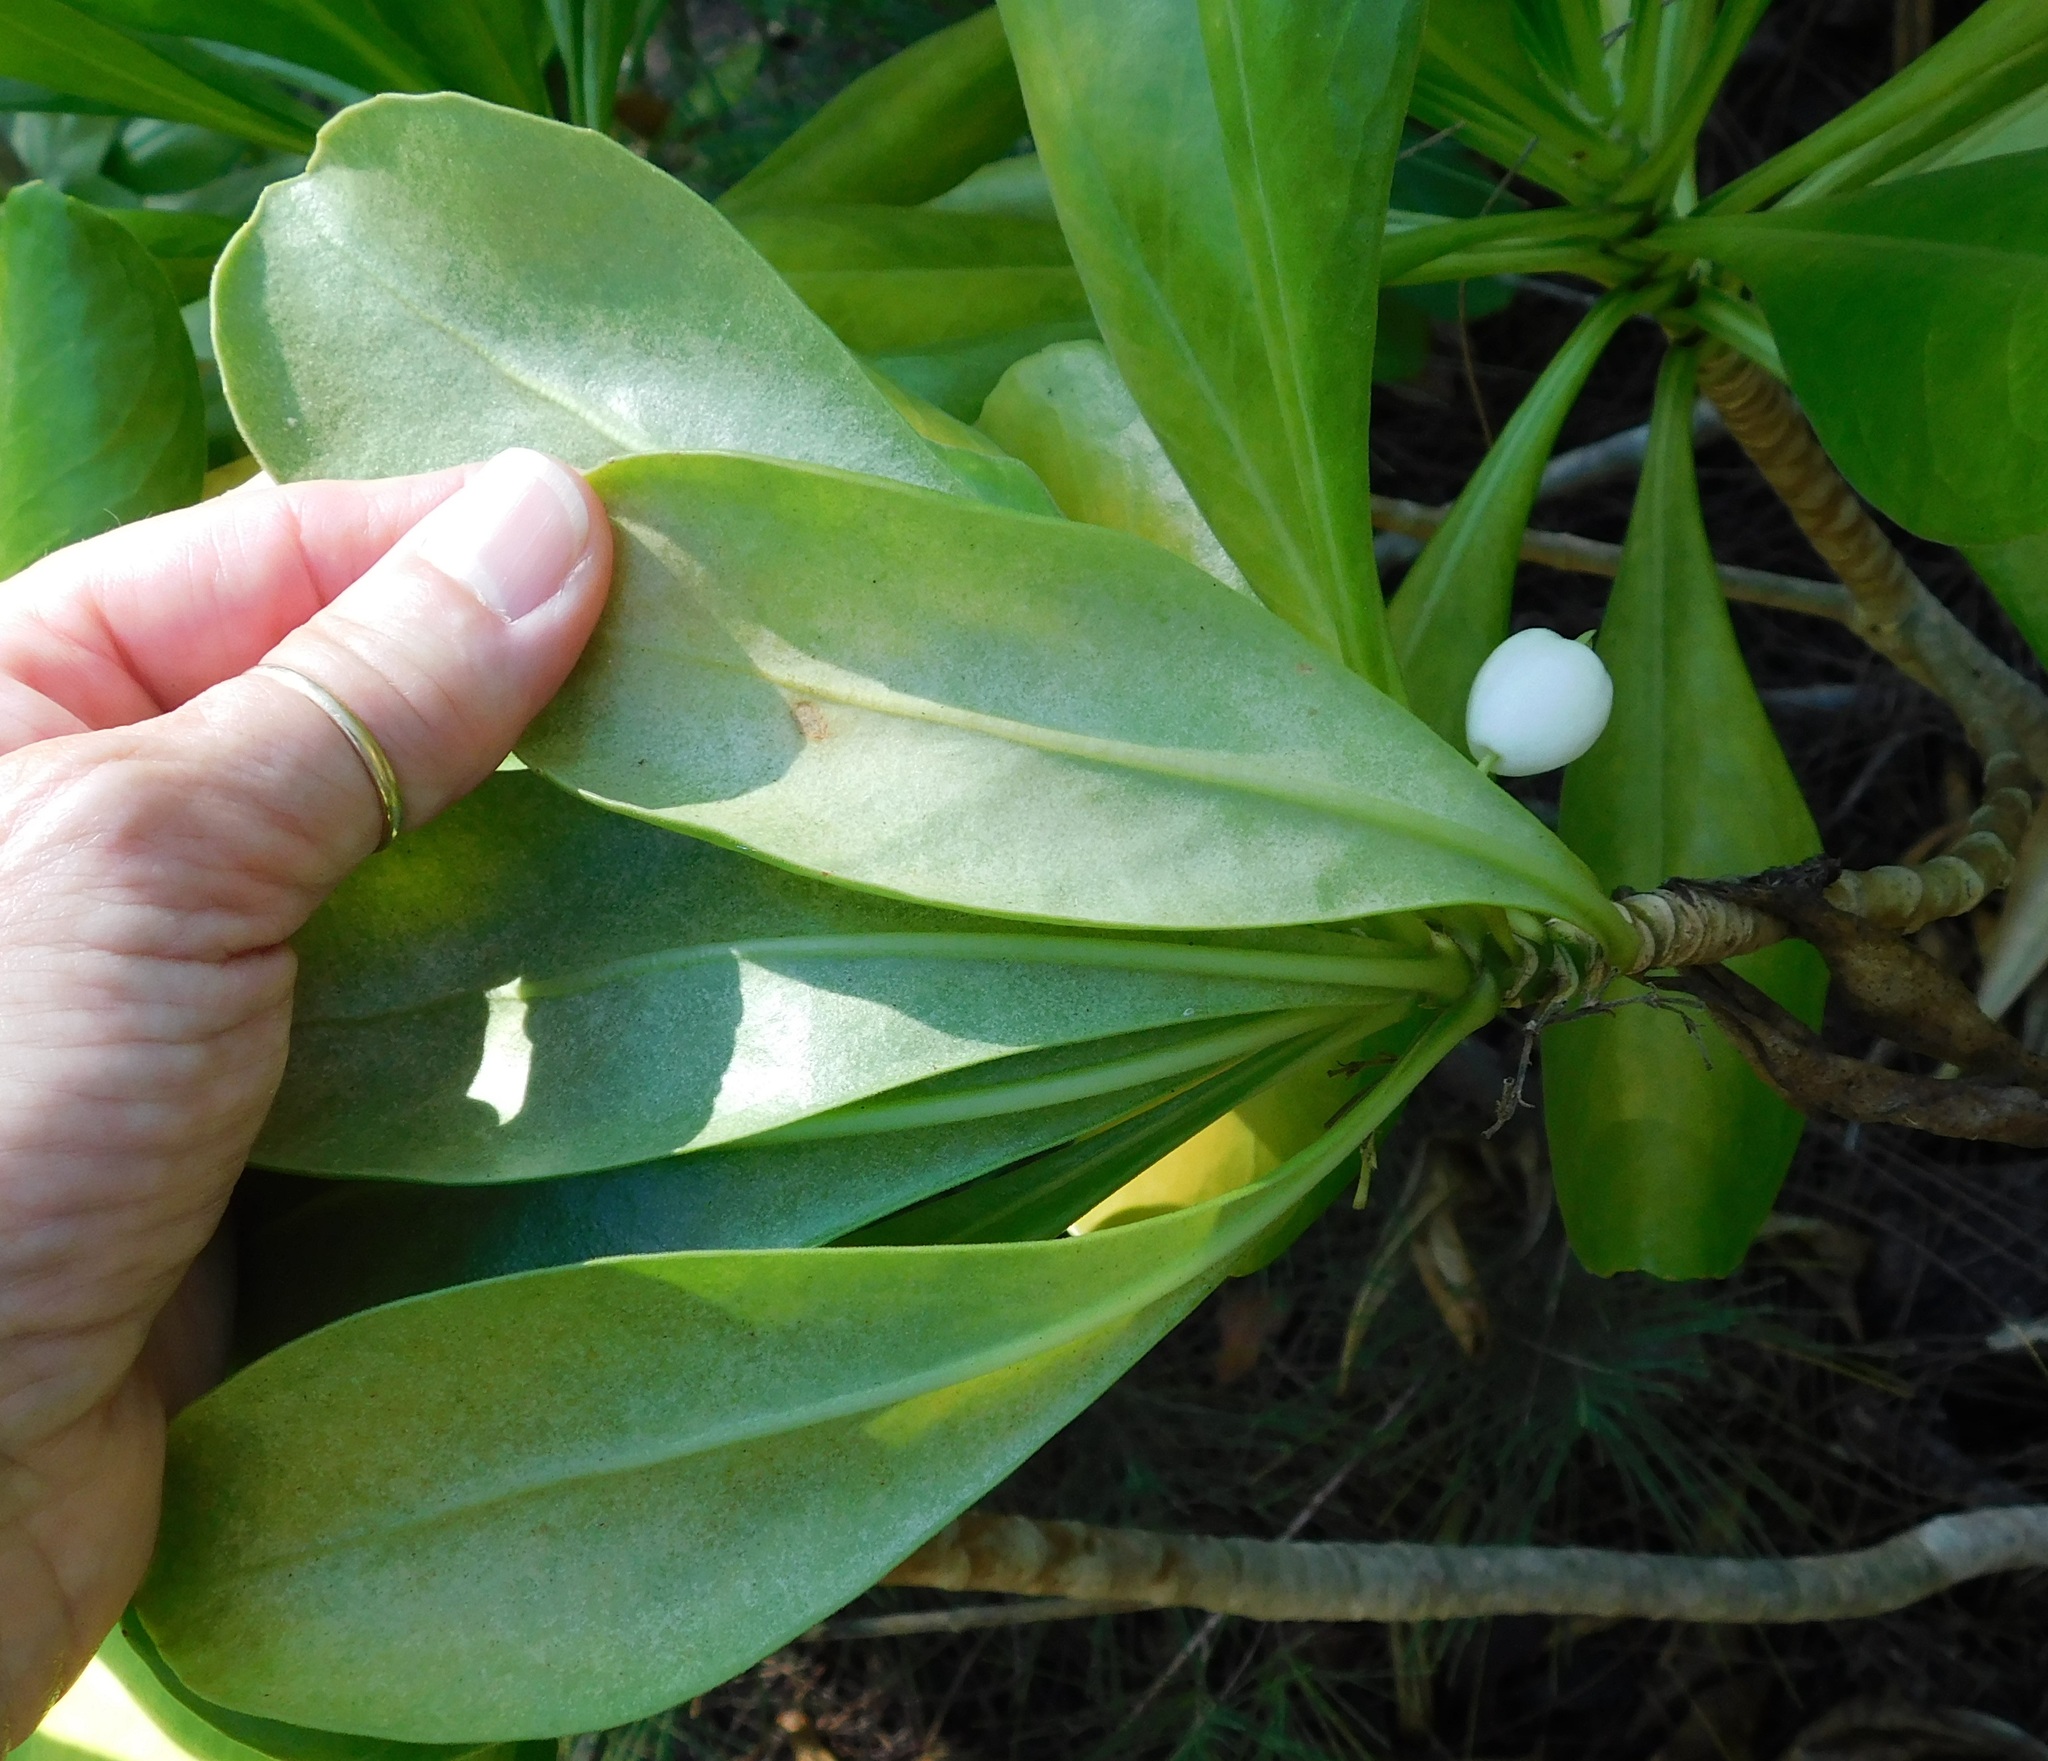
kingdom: Plantae
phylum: Tracheophyta
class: Magnoliopsida
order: Asterales
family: Goodeniaceae
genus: Scaevola
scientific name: Scaevola taccada
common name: Sea lettucetree
